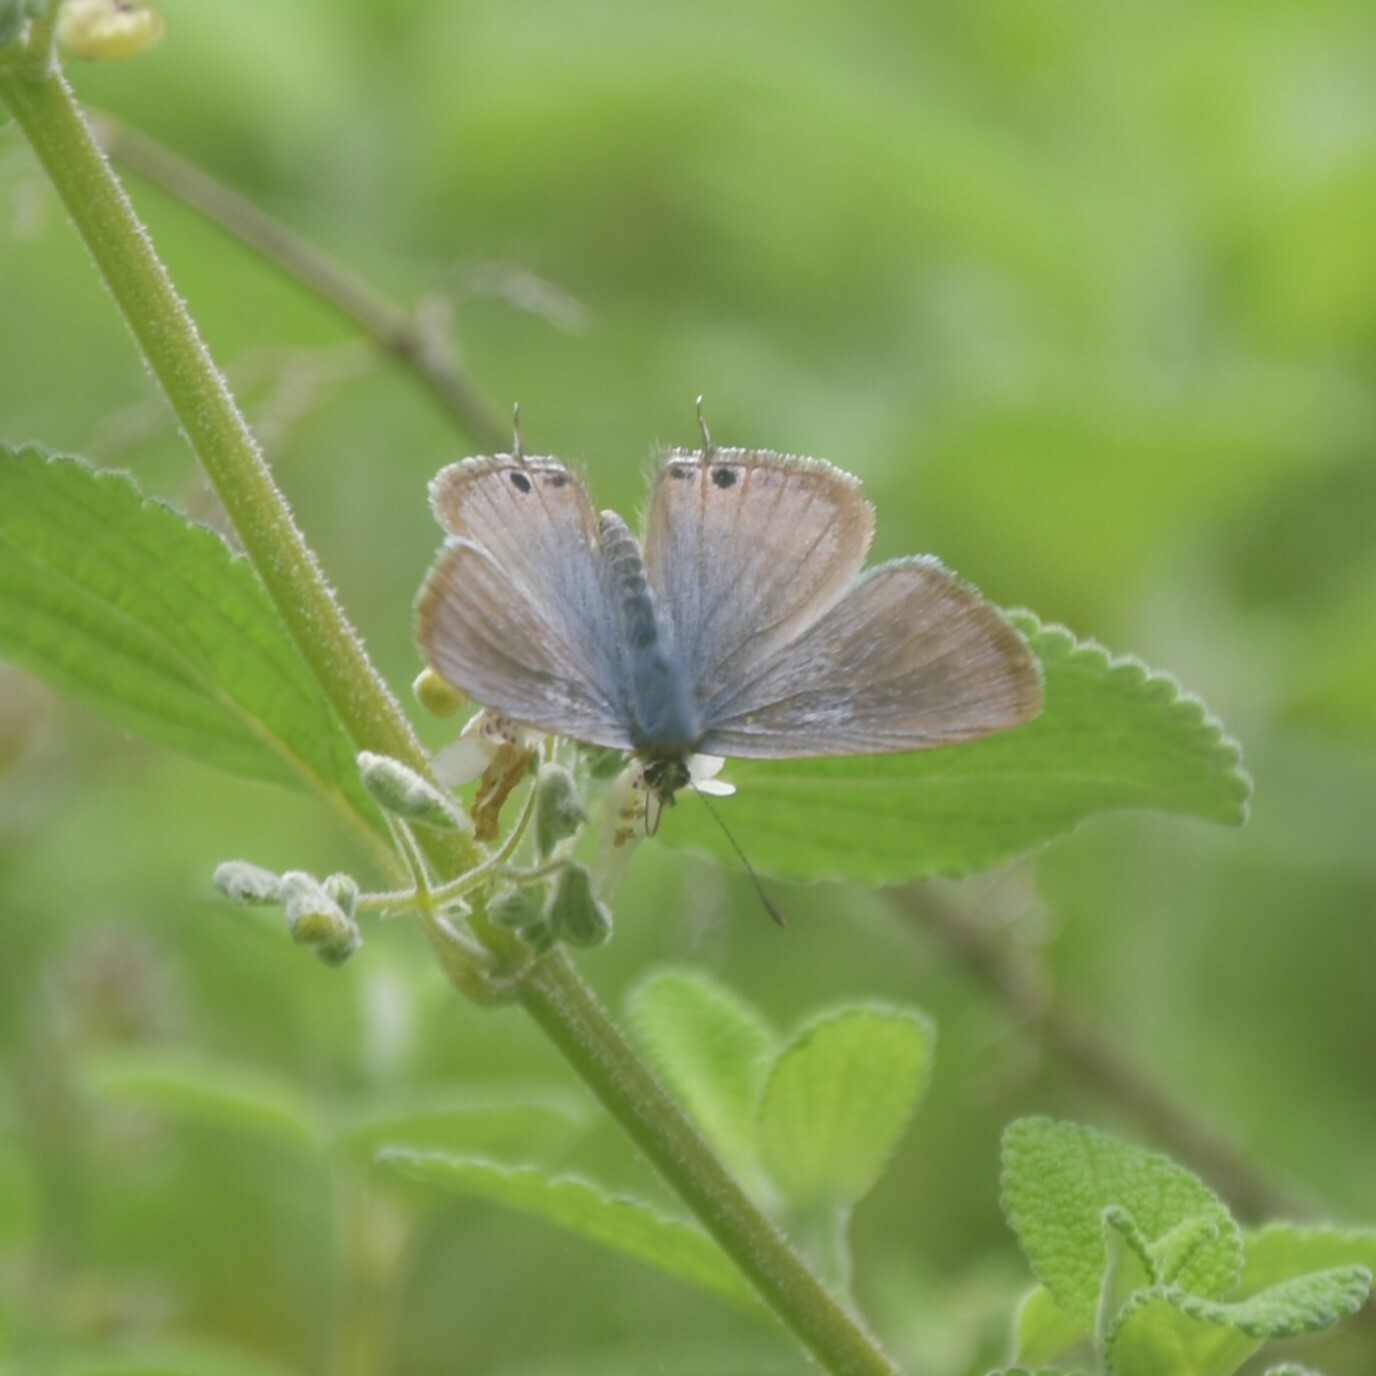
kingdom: Animalia
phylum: Arthropoda
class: Insecta
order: Lepidoptera
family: Lycaenidae
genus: Lampides
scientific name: Lampides boeticus
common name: Long-tailed blue
